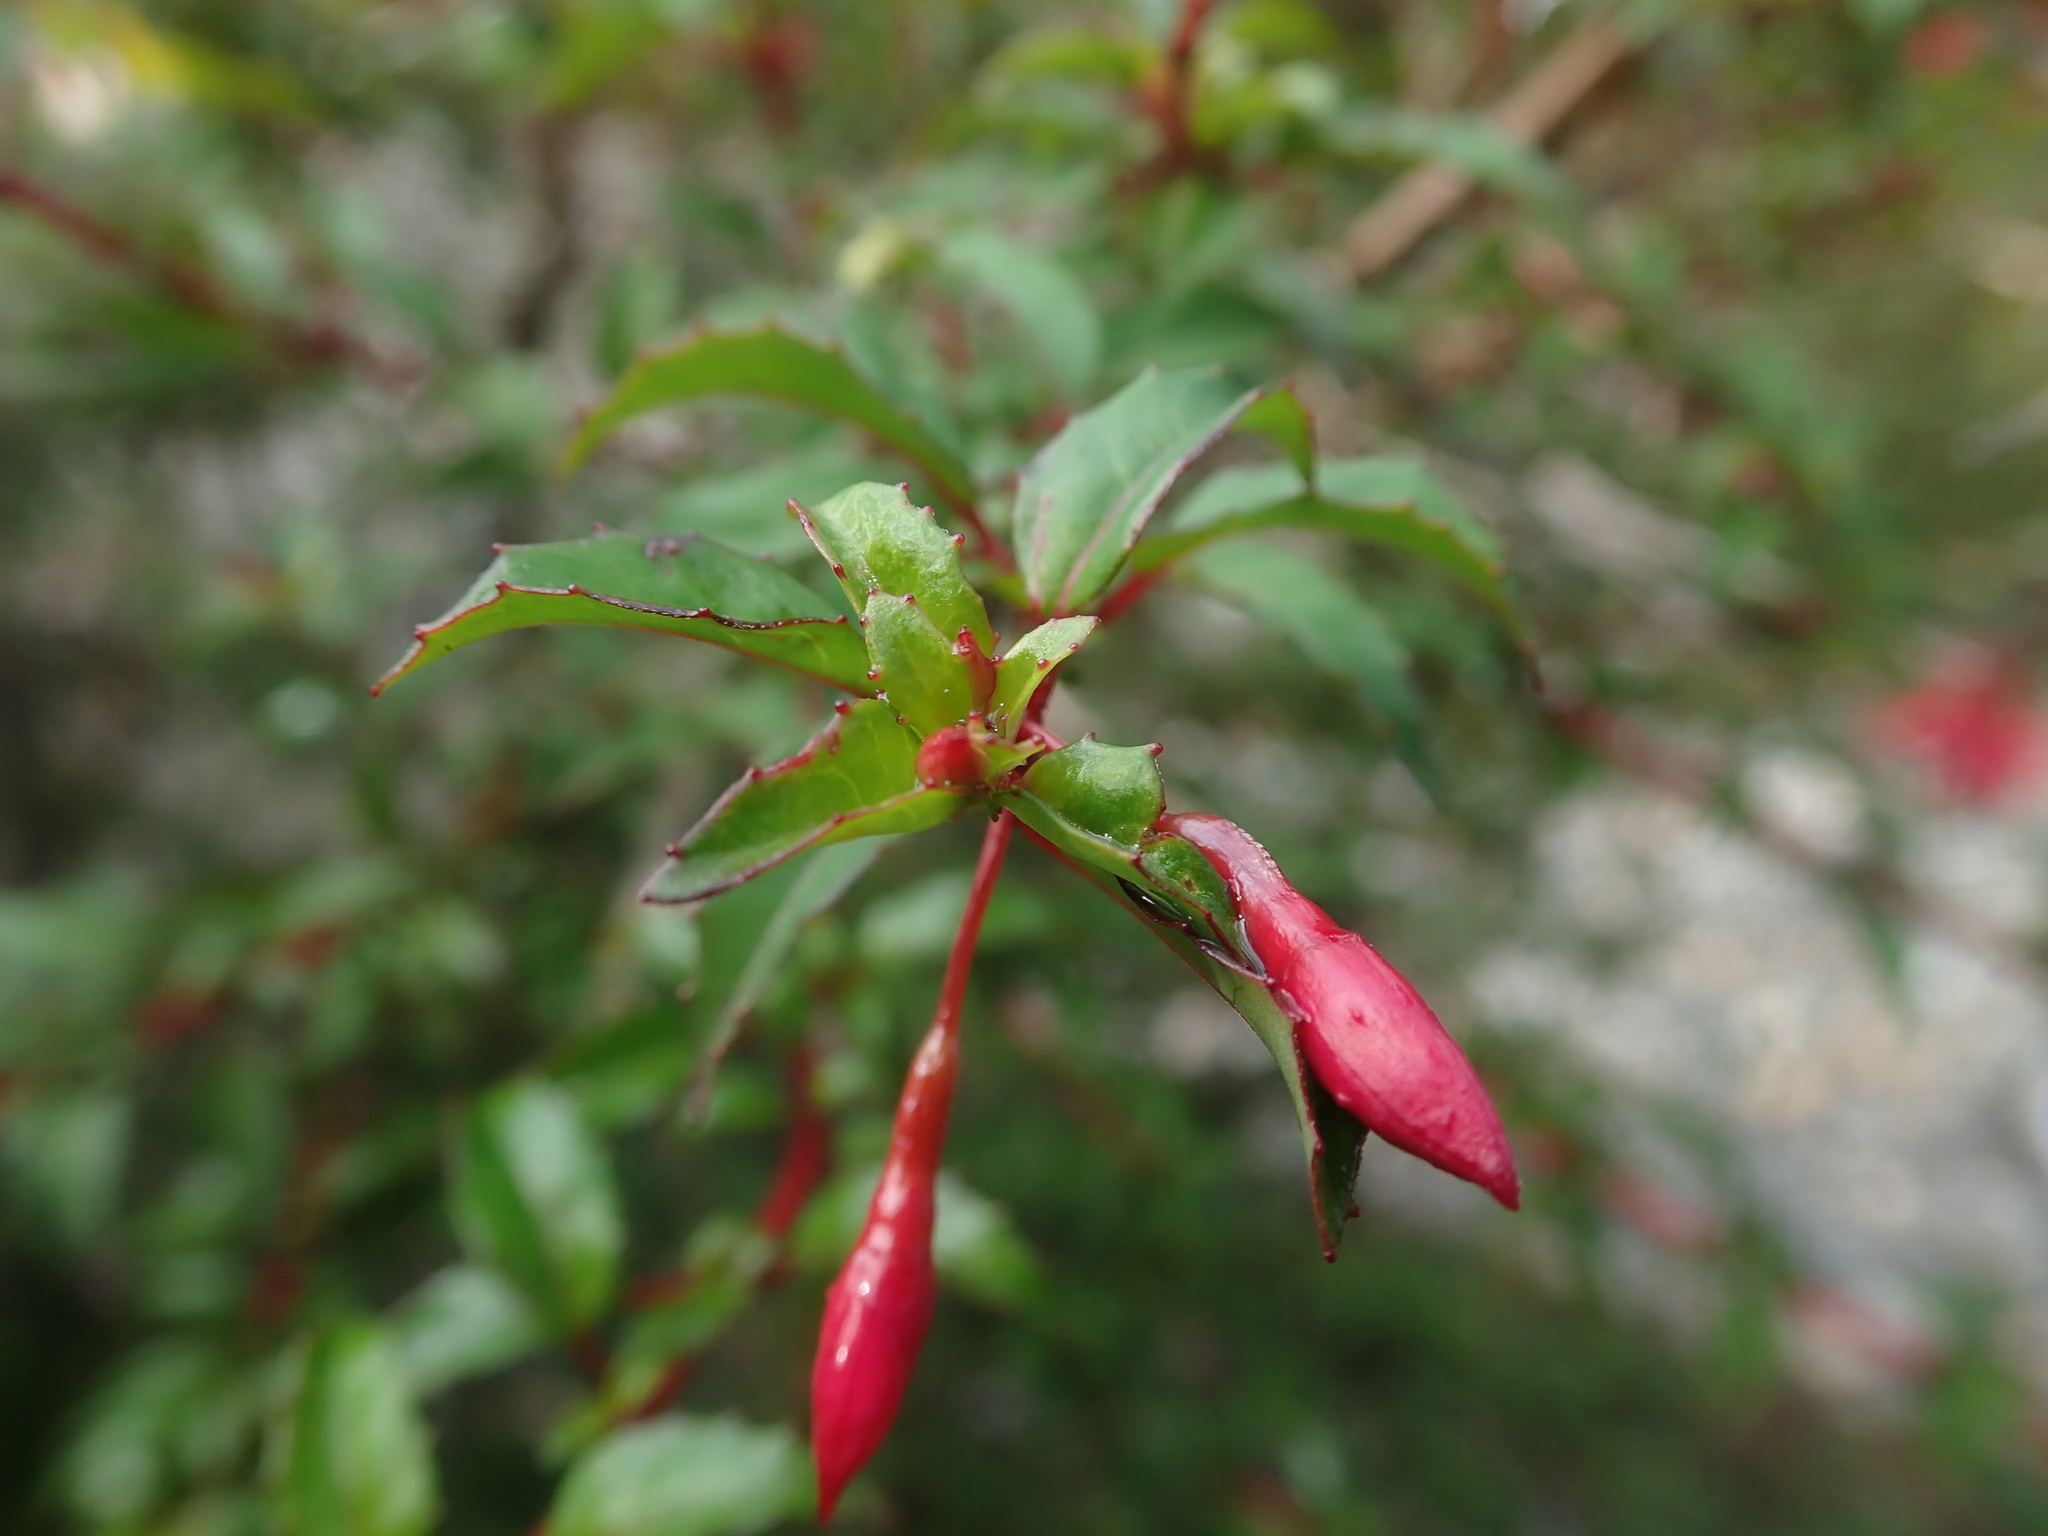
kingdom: Plantae
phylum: Tracheophyta
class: Magnoliopsida
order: Myrtales
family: Onagraceae
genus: Fuchsia
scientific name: Fuchsia magellanica
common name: Hardy fuchsia
